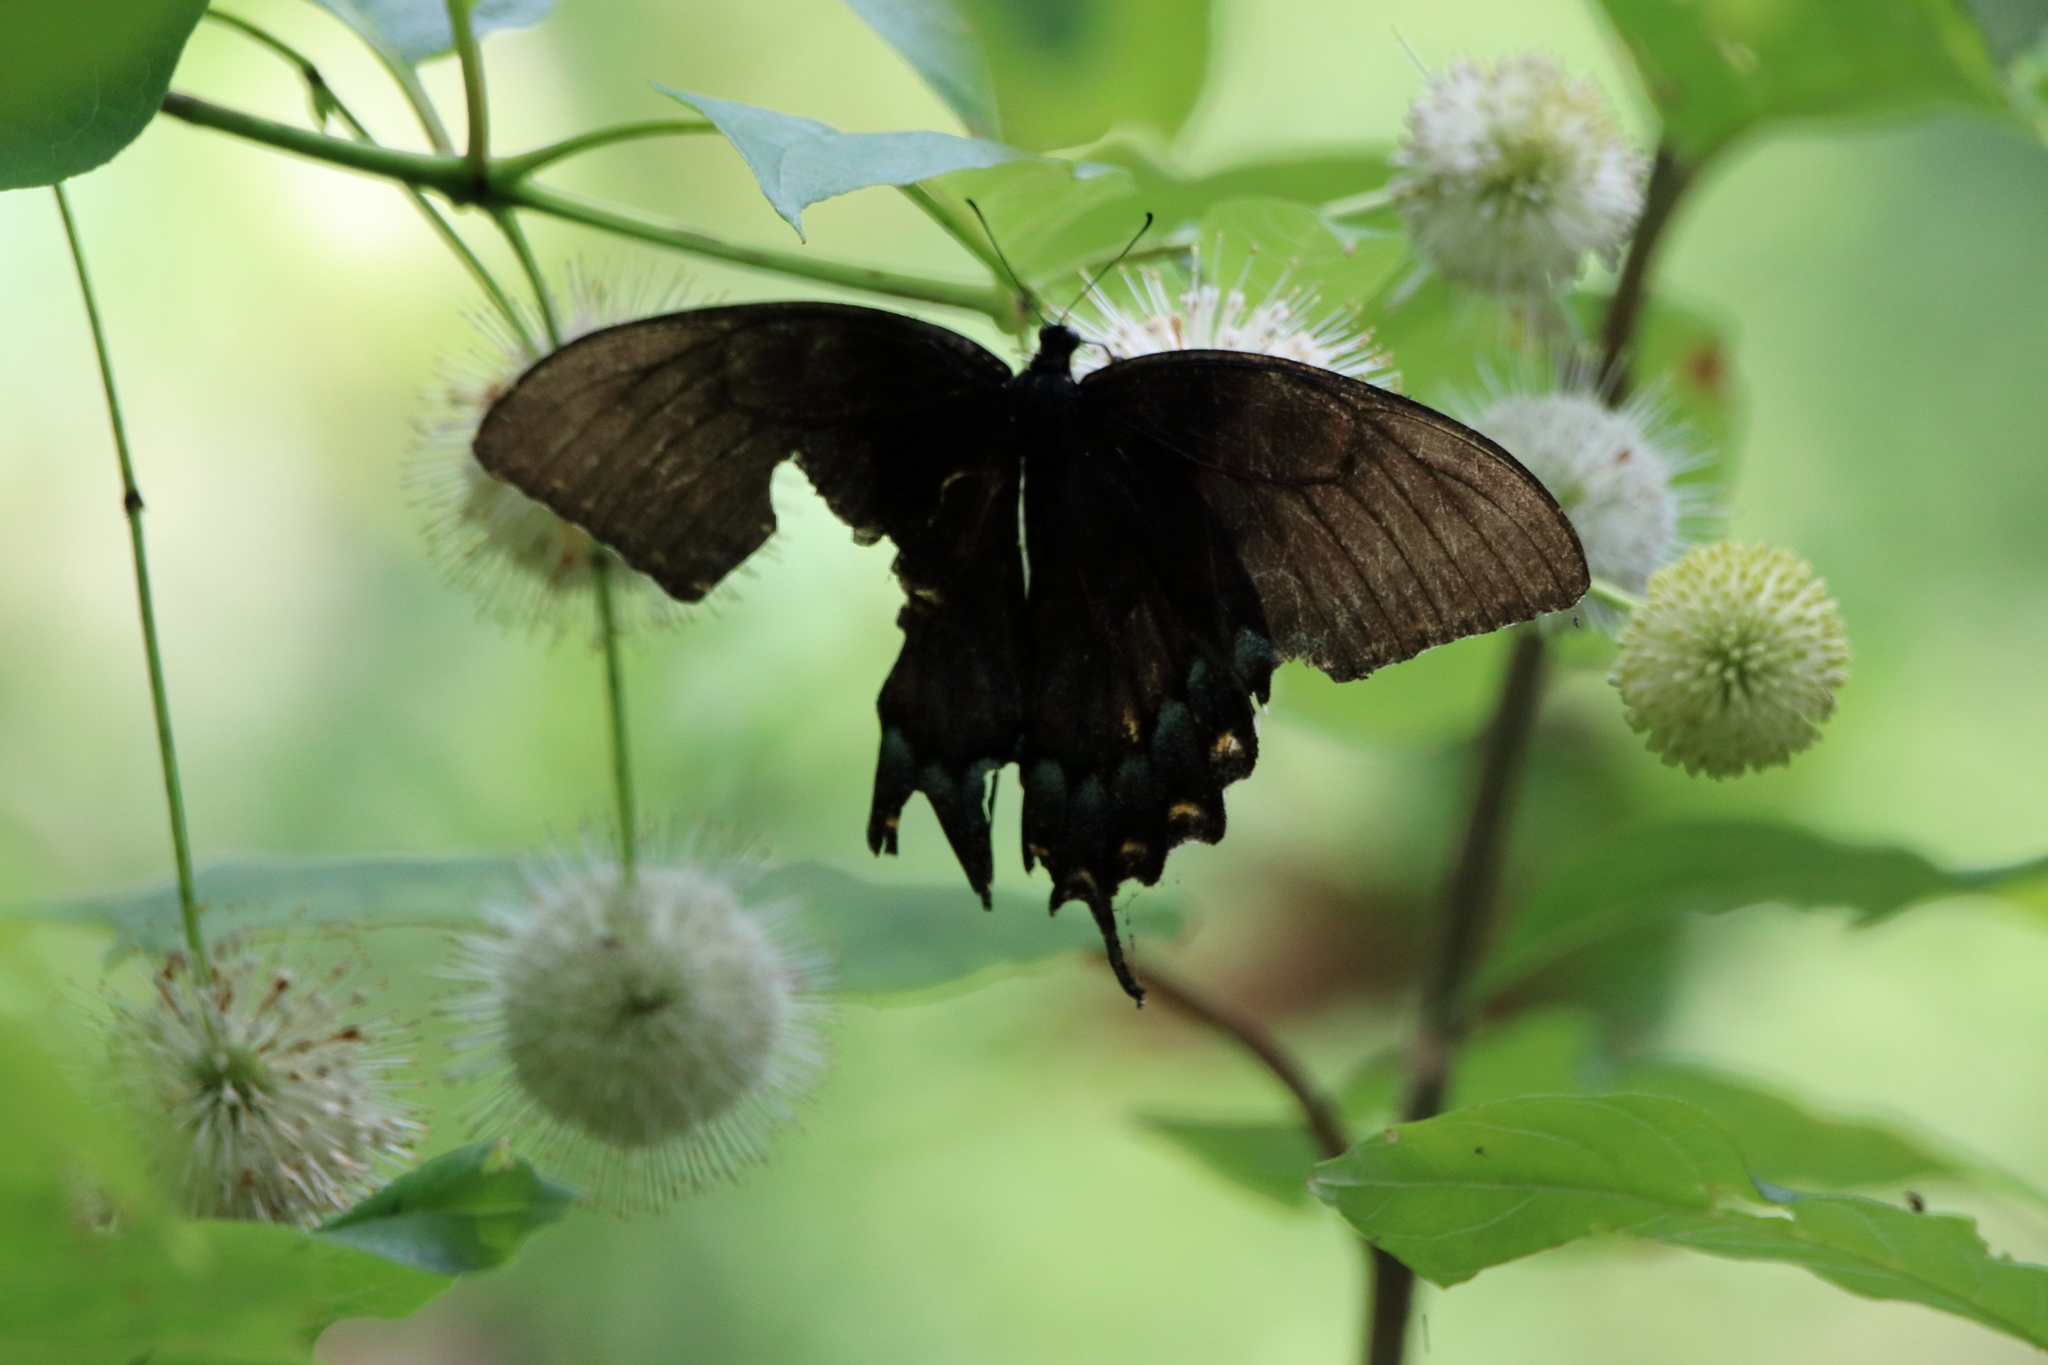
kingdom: Animalia
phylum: Arthropoda
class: Insecta
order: Lepidoptera
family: Papilionidae
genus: Papilio
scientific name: Papilio glaucus
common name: Tiger swallowtail
